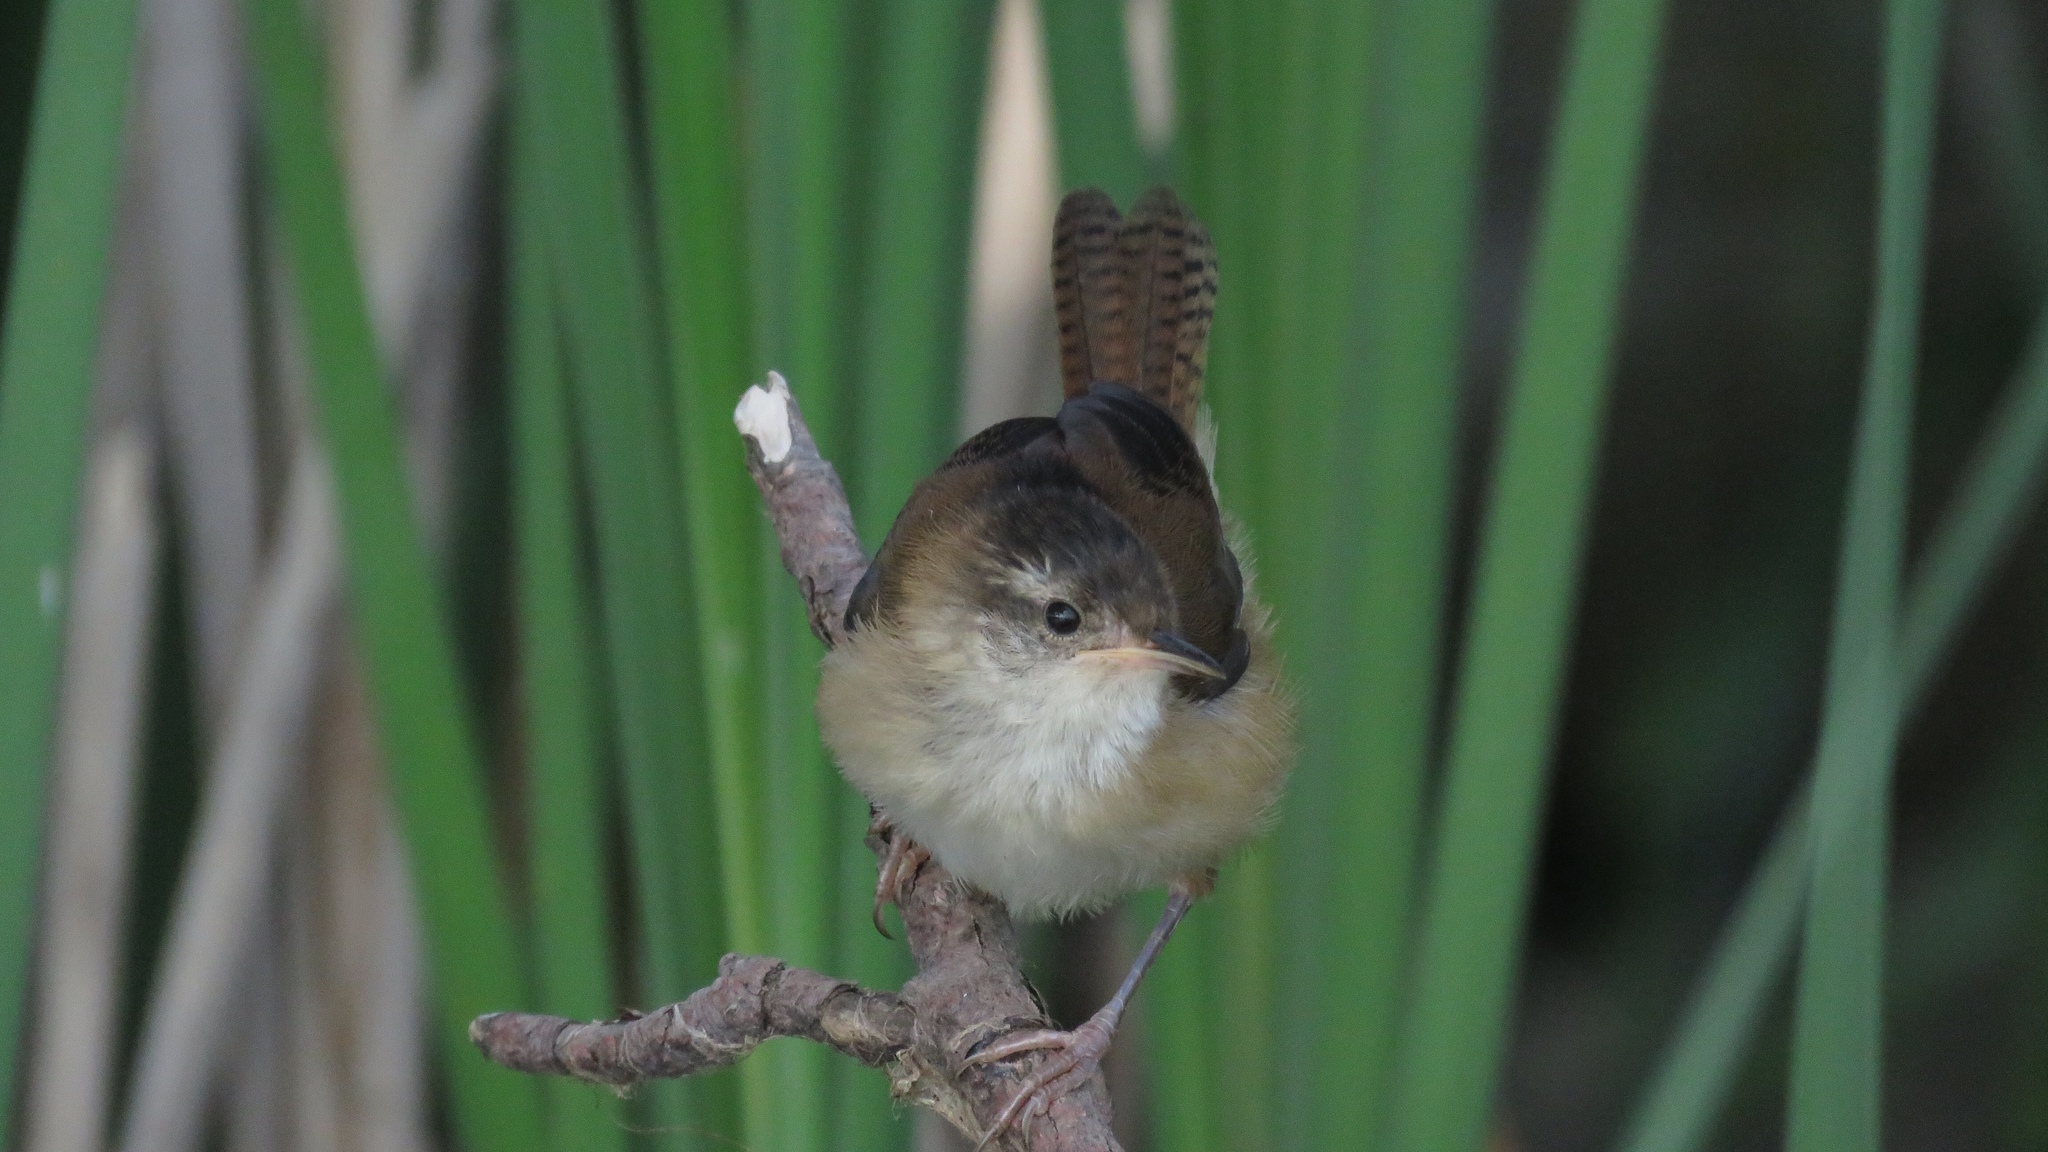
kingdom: Animalia
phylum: Chordata
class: Aves
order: Passeriformes
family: Troglodytidae
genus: Cistothorus
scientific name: Cistothorus palustris
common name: Marsh wren
